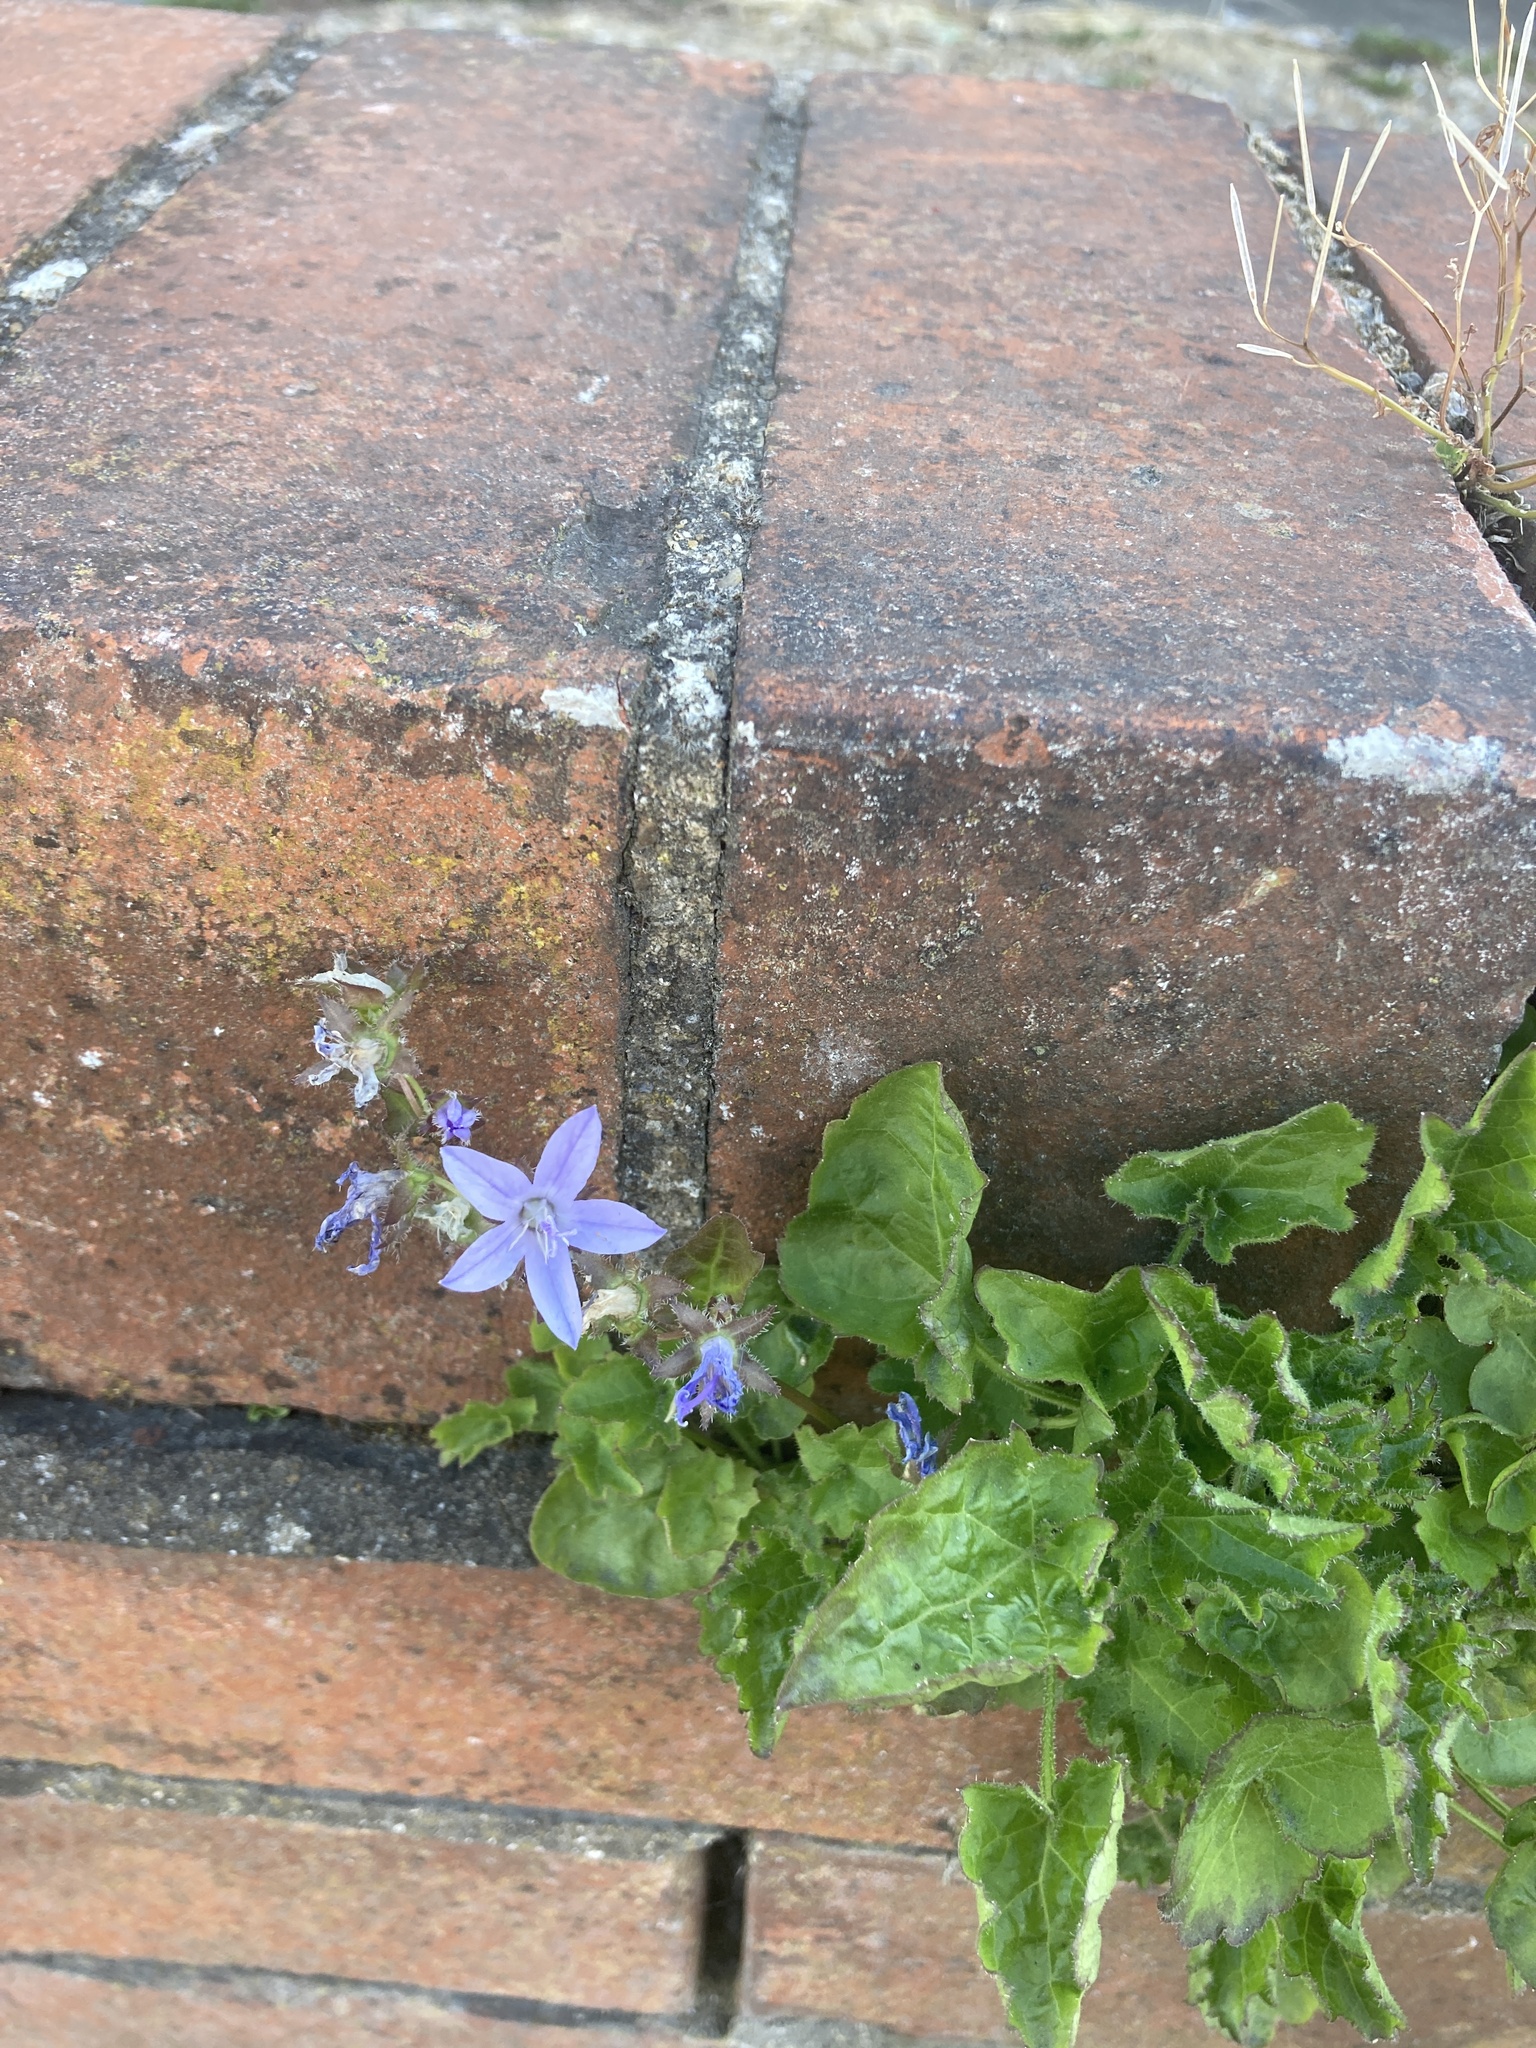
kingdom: Plantae
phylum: Tracheophyta
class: Magnoliopsida
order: Asterales
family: Campanulaceae
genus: Campanula
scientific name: Campanula poscharskyana
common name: Trailing bellflower
